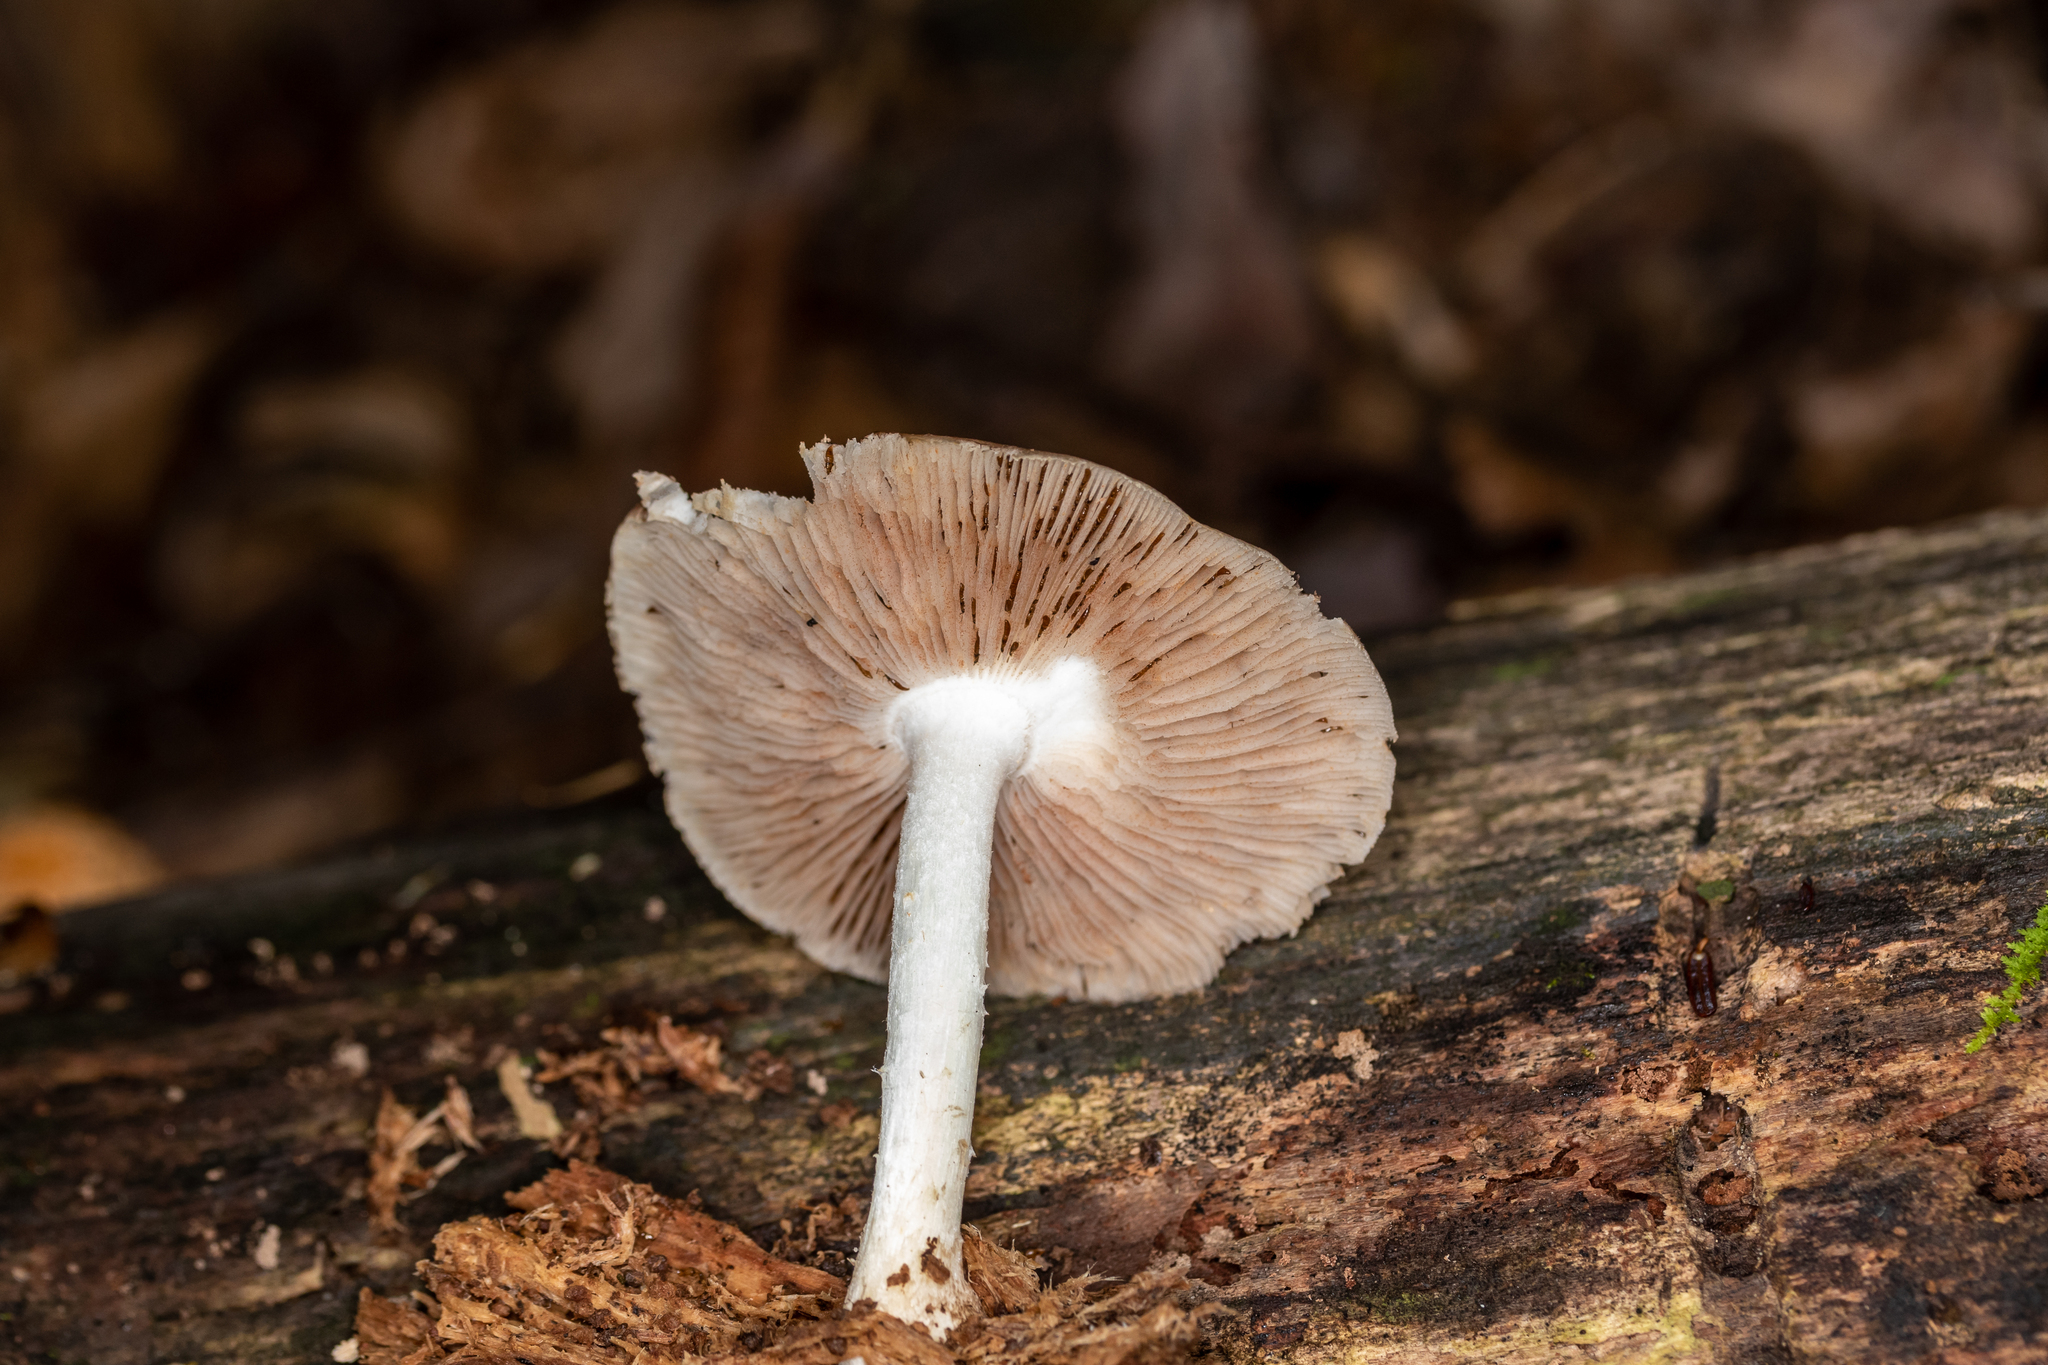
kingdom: Fungi
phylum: Basidiomycota
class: Agaricomycetes
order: Agaricales
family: Pluteaceae
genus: Pluteus
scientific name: Pluteus cervinus
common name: Deer shield
